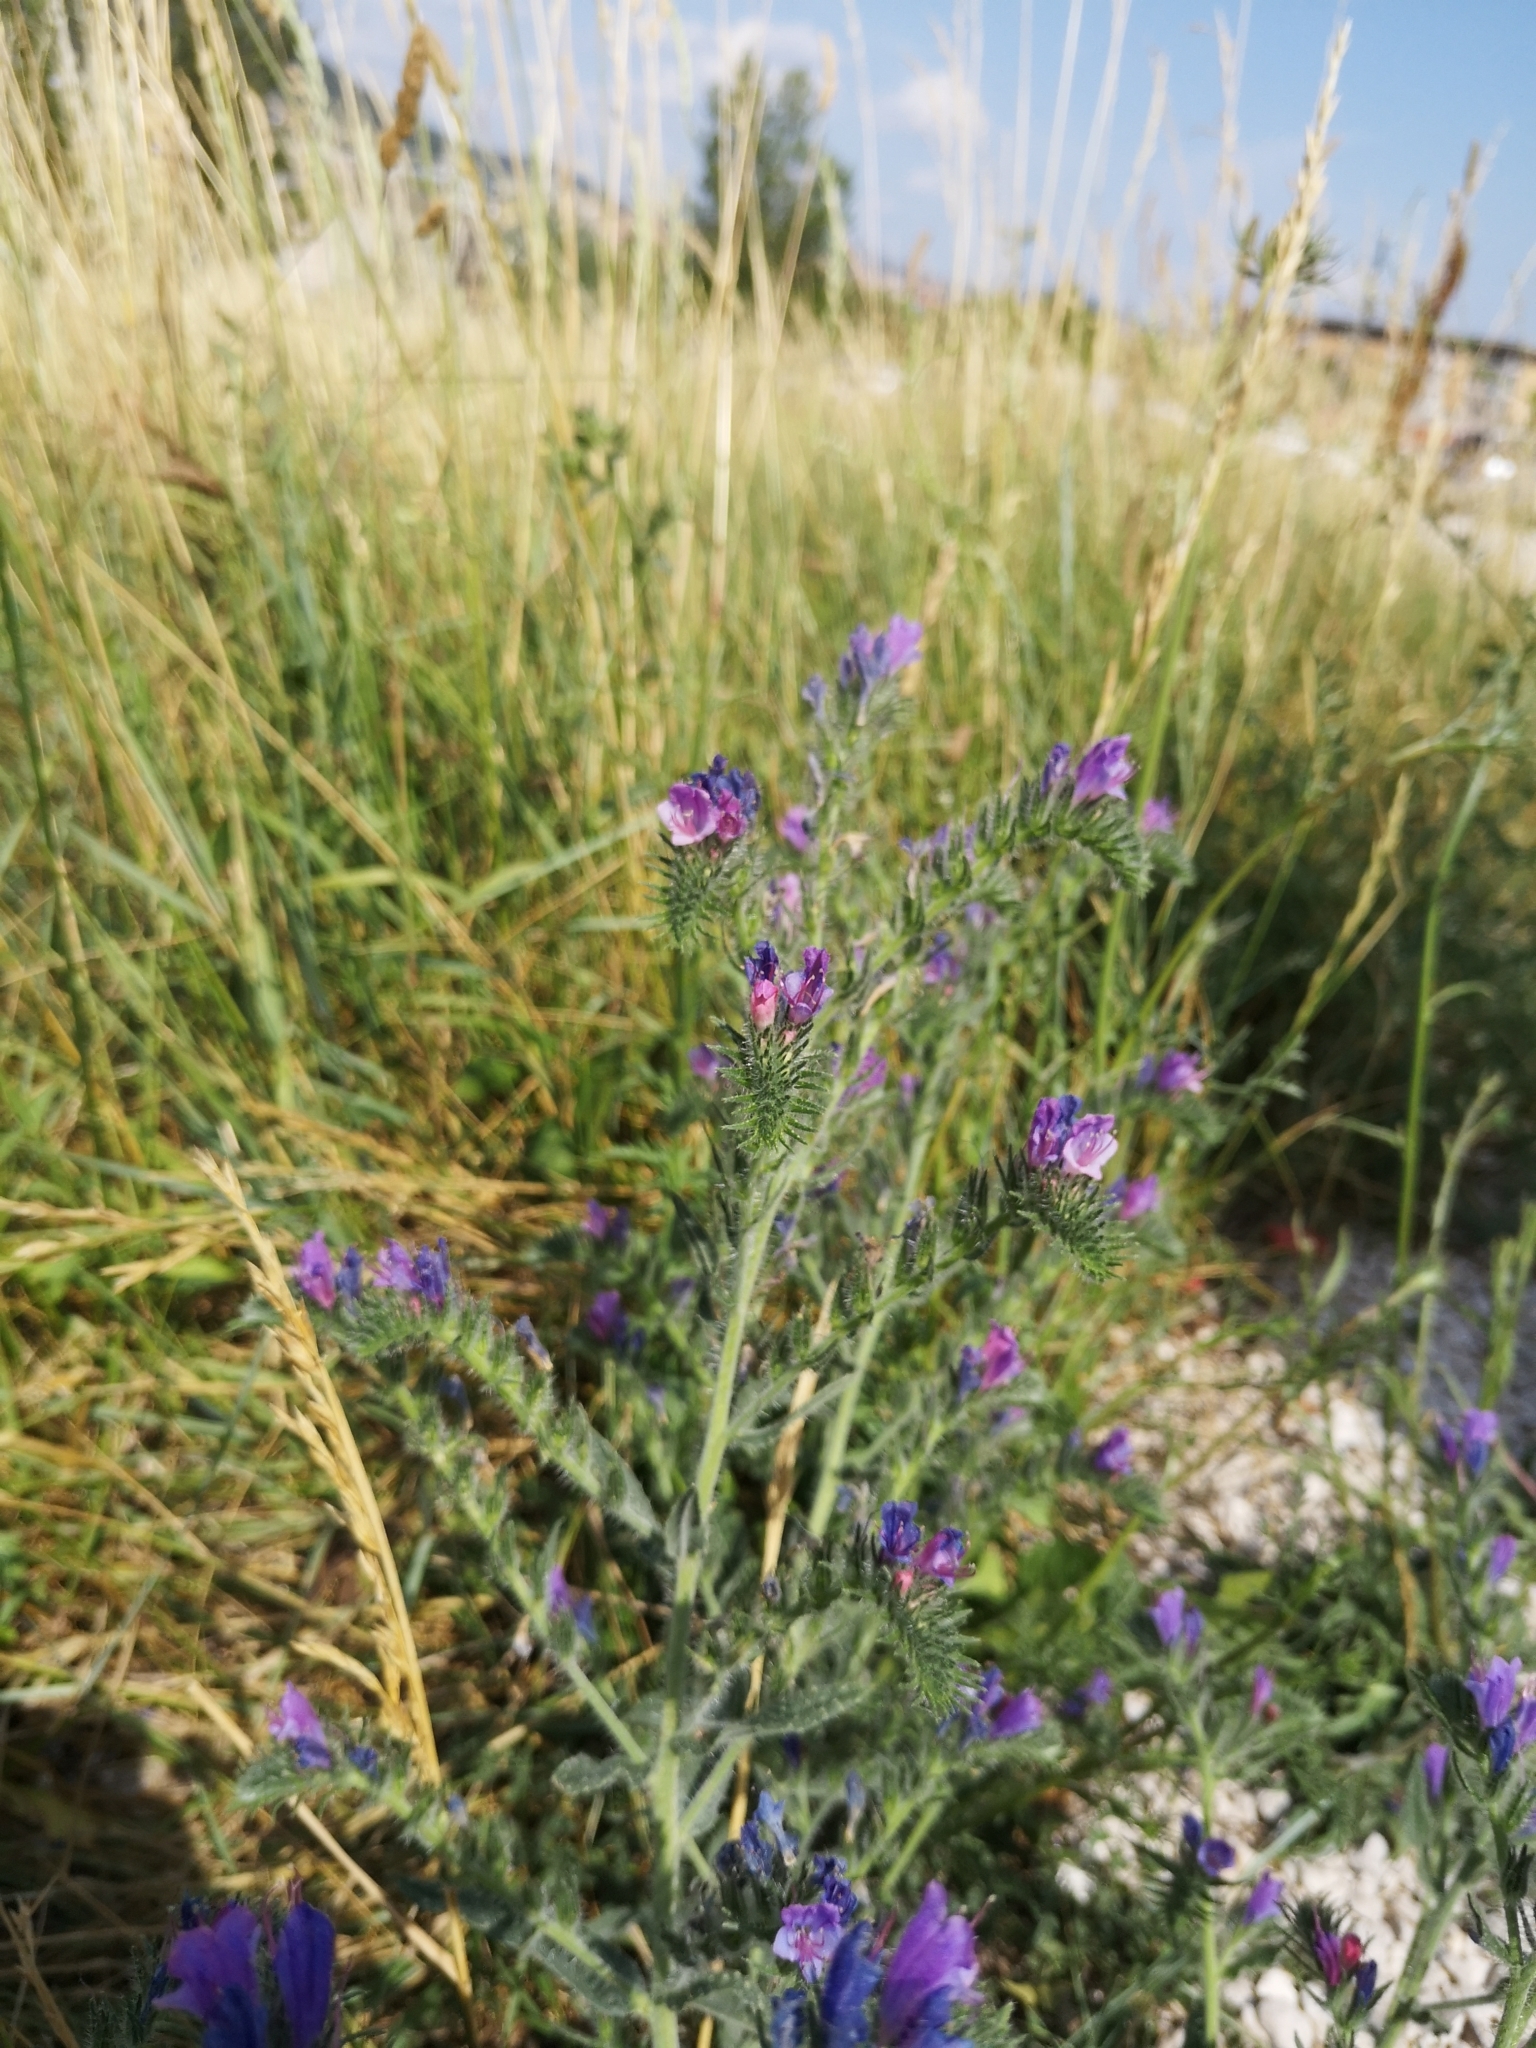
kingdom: Plantae
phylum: Tracheophyta
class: Magnoliopsida
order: Boraginales
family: Boraginaceae
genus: Echium
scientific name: Echium vulgare
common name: Common viper's bugloss
